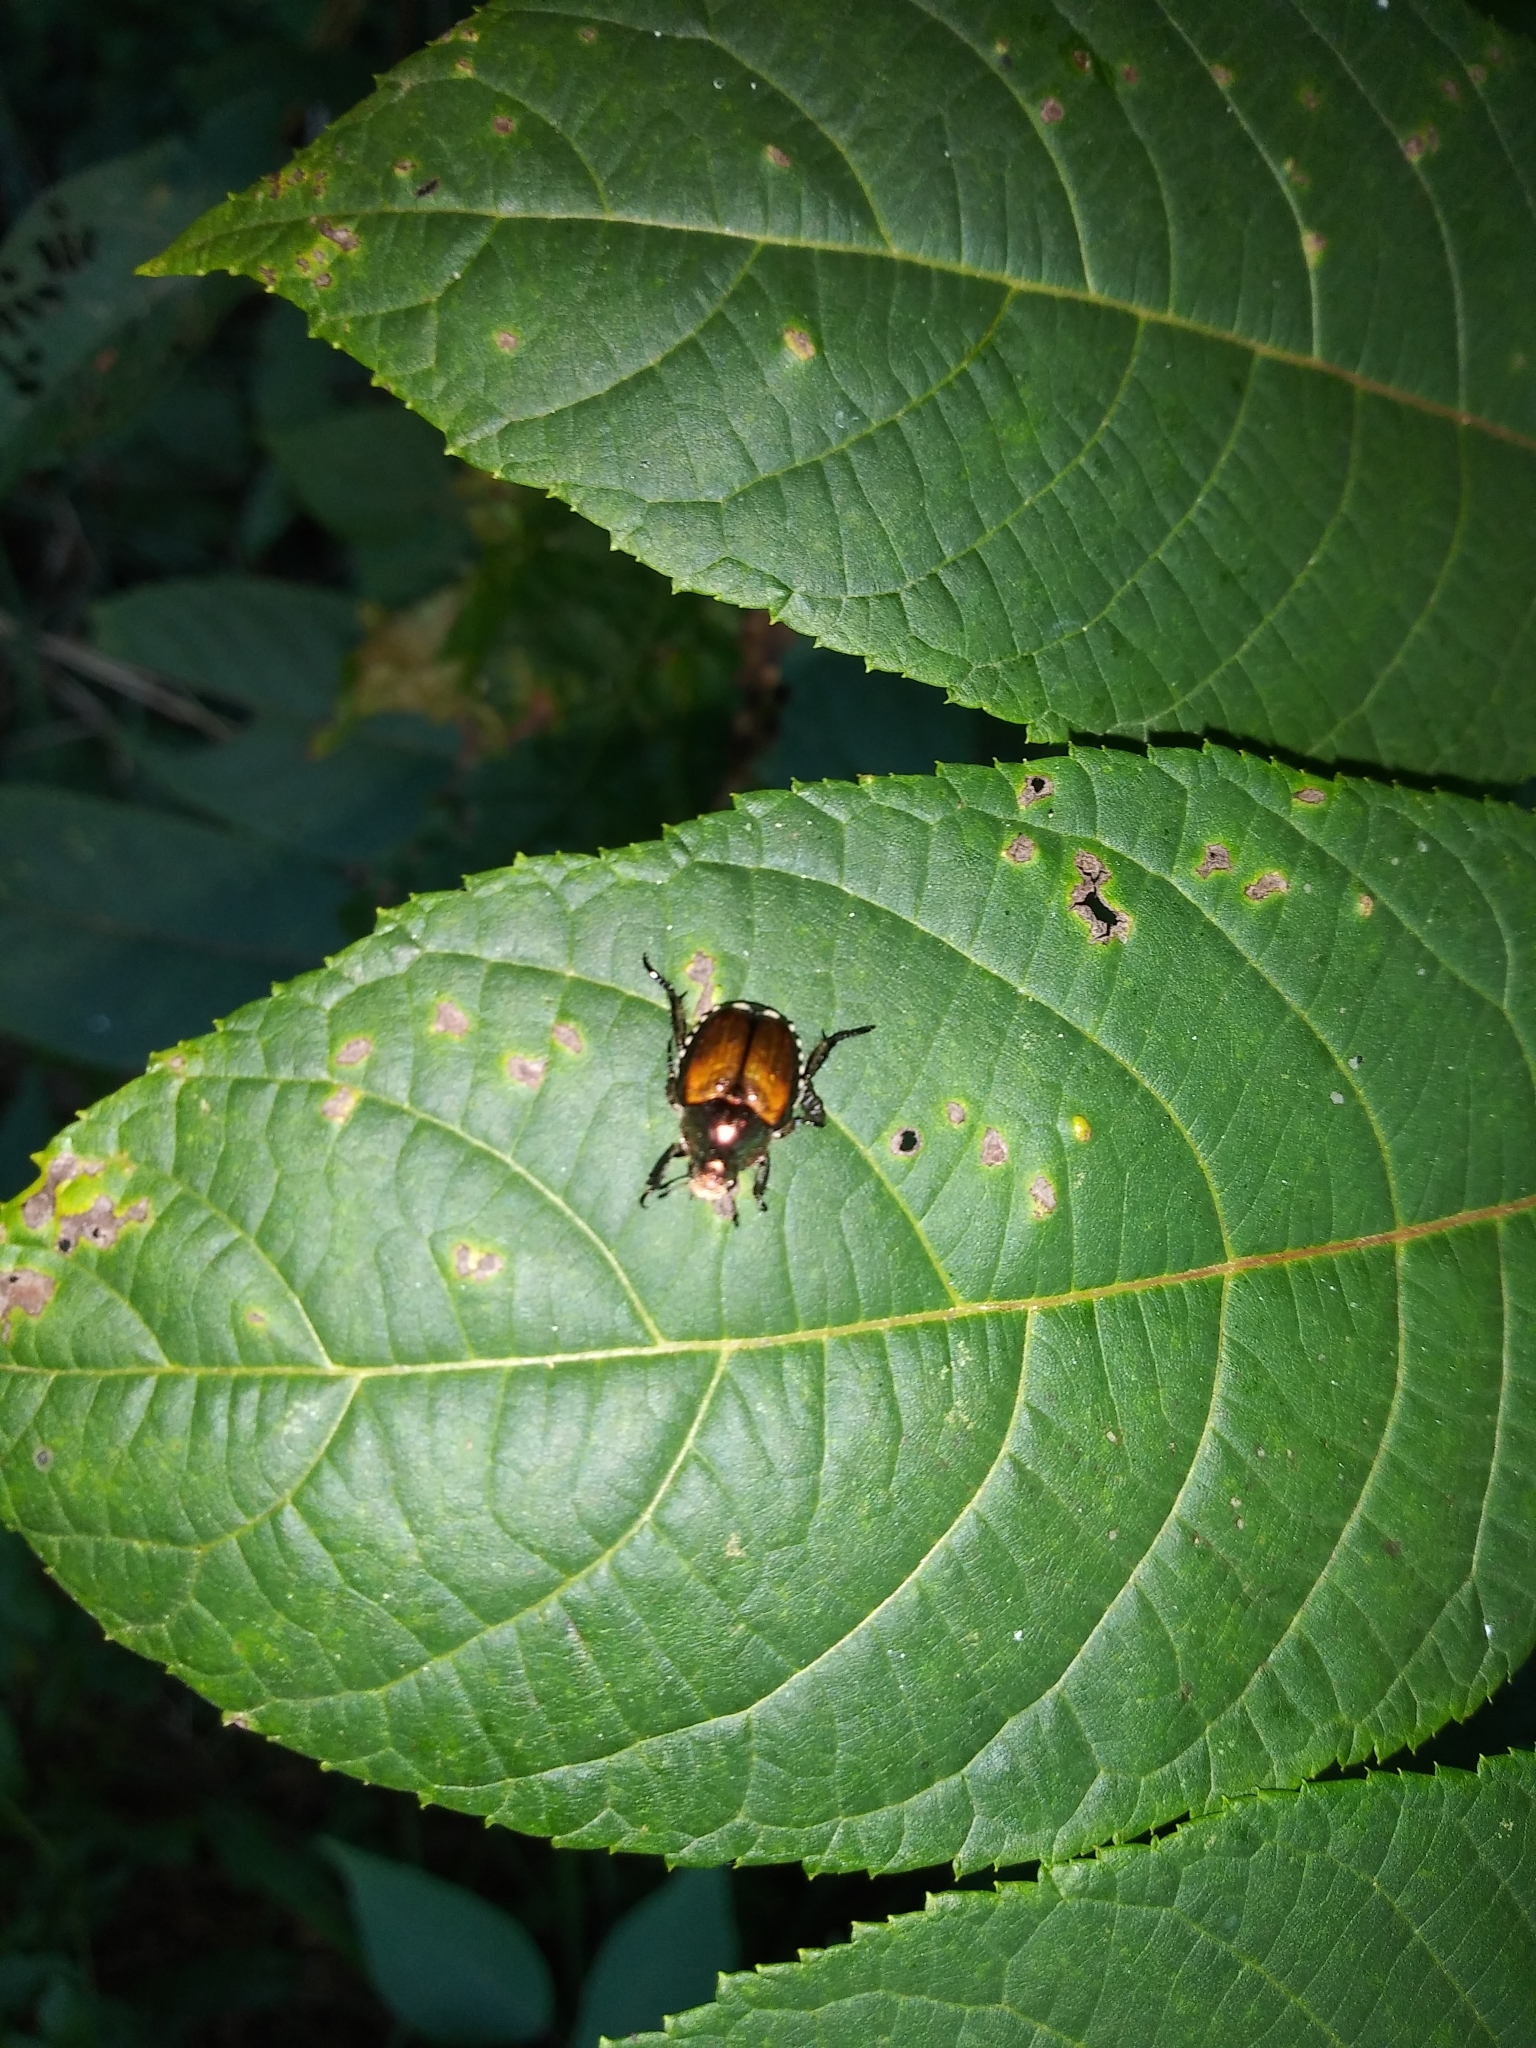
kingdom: Animalia
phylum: Arthropoda
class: Insecta
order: Coleoptera
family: Scarabaeidae
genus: Popillia
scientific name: Popillia japonica
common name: Japanese beetle
